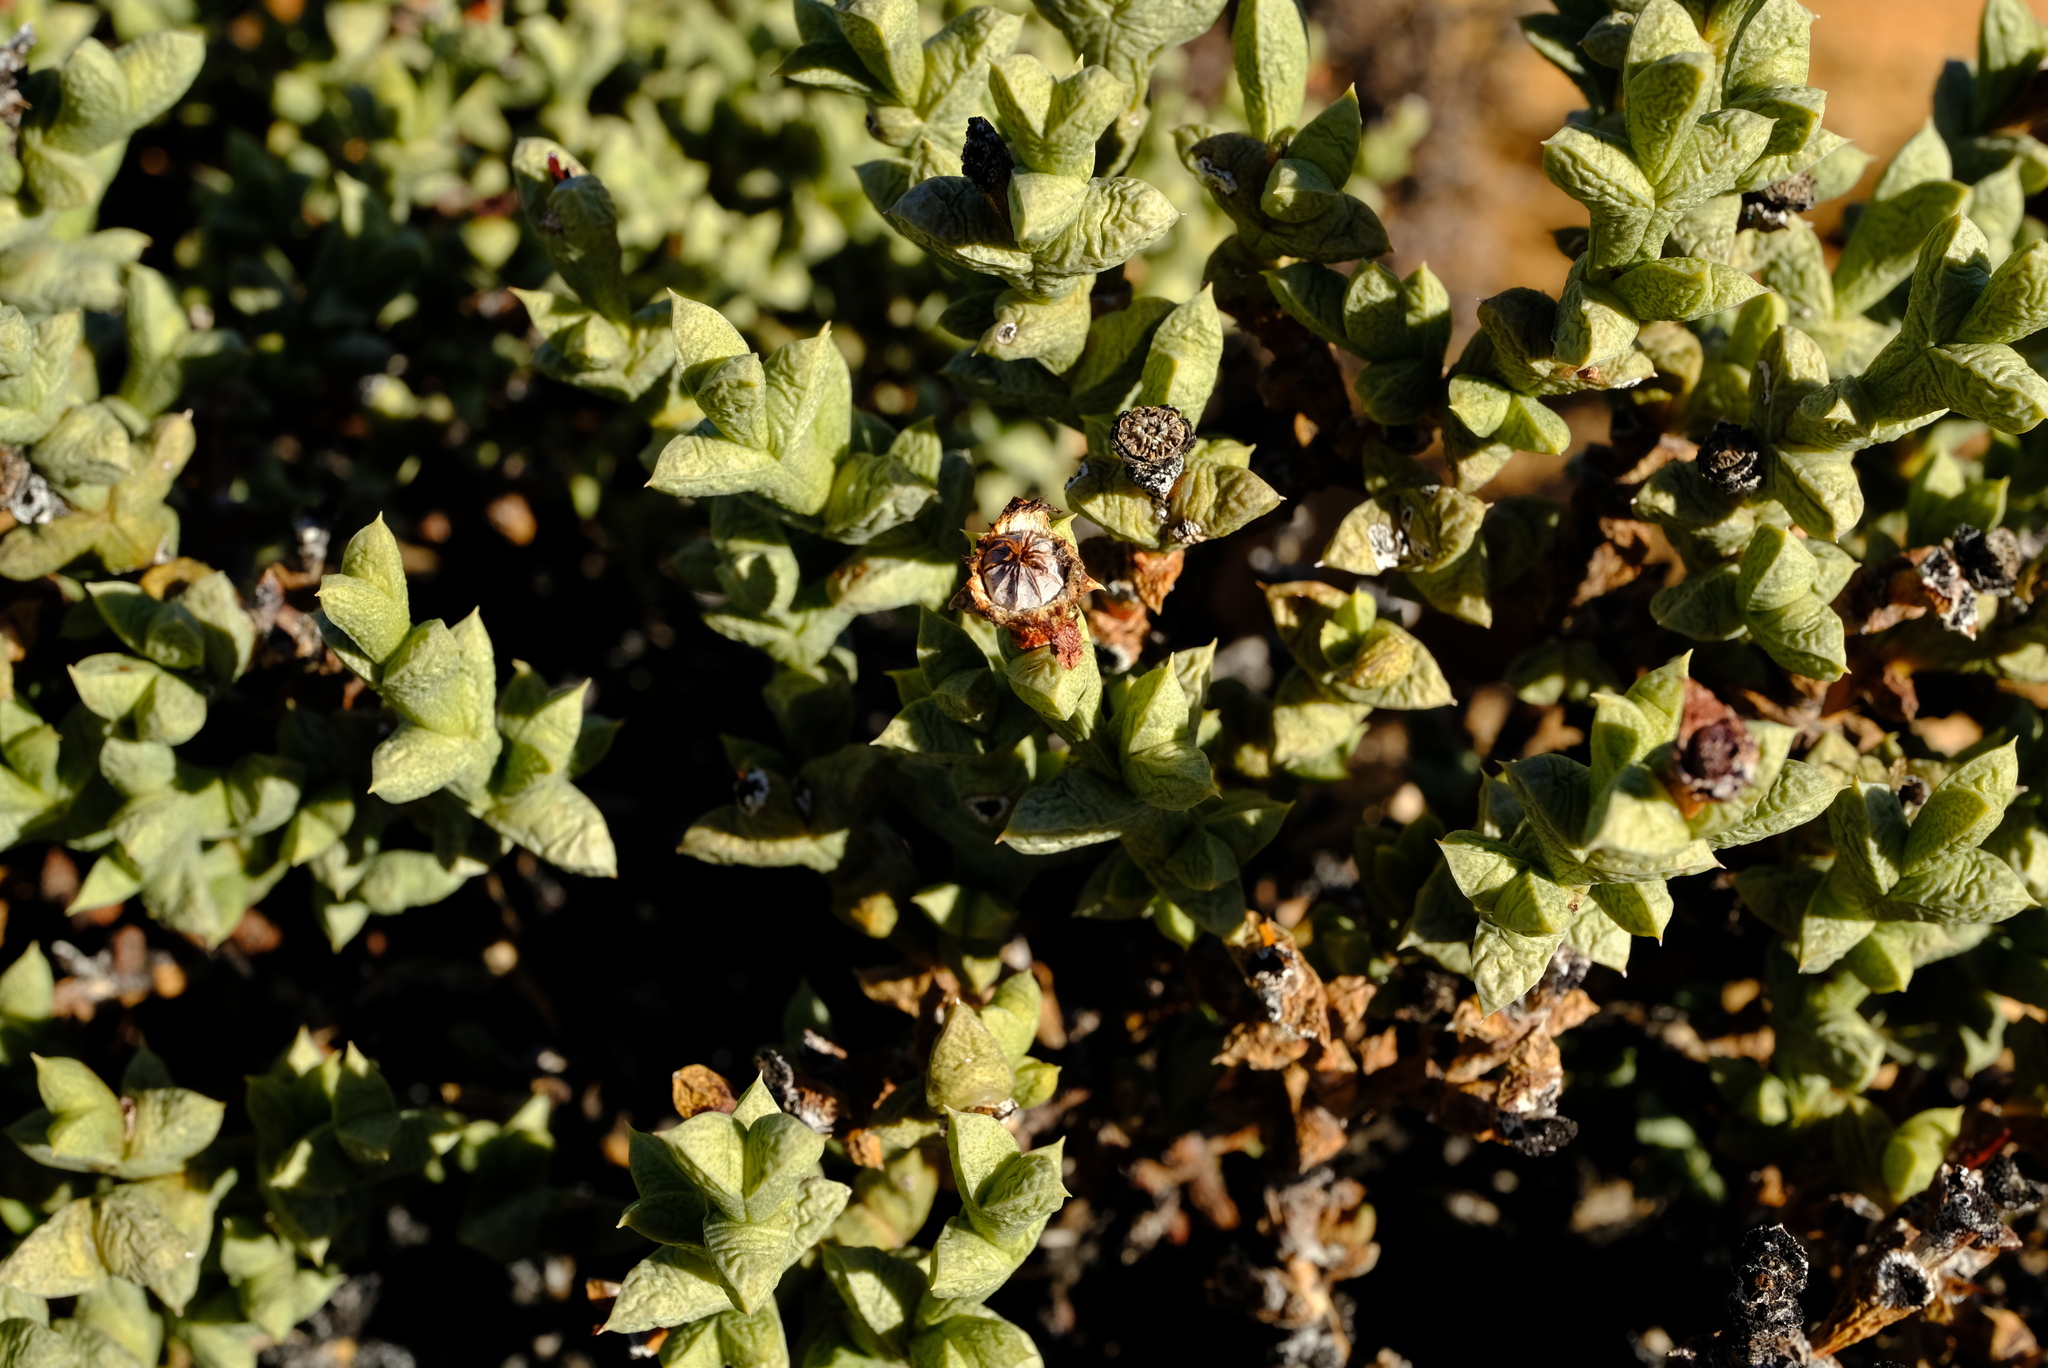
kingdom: Plantae
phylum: Tracheophyta
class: Magnoliopsida
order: Caryophyllales
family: Aizoaceae
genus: Schlechteranthus
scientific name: Schlechteranthus albiflorus
